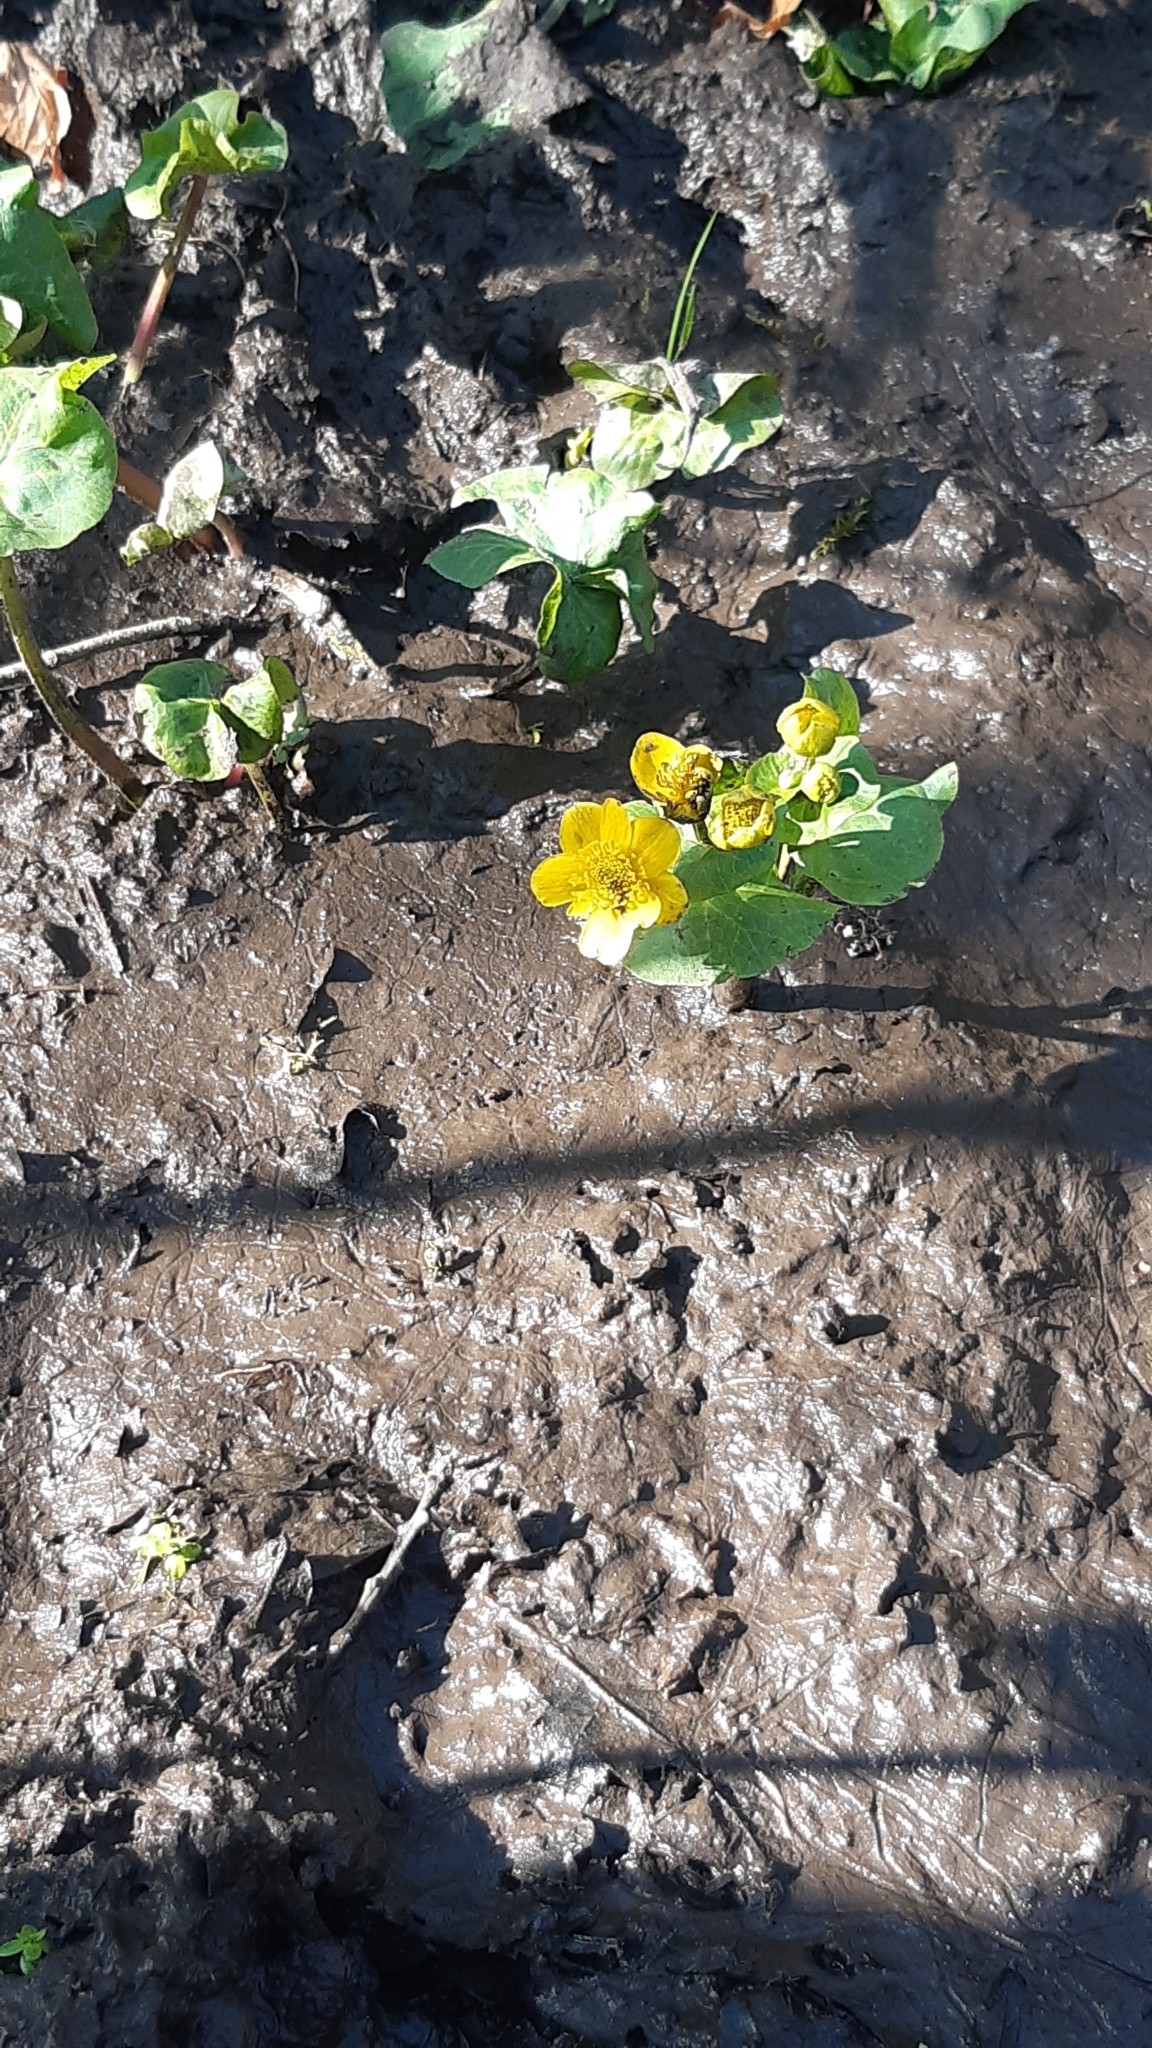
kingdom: Plantae
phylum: Tracheophyta
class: Magnoliopsida
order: Ranunculales
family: Ranunculaceae
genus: Caltha
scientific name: Caltha palustris
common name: Marsh marigold
